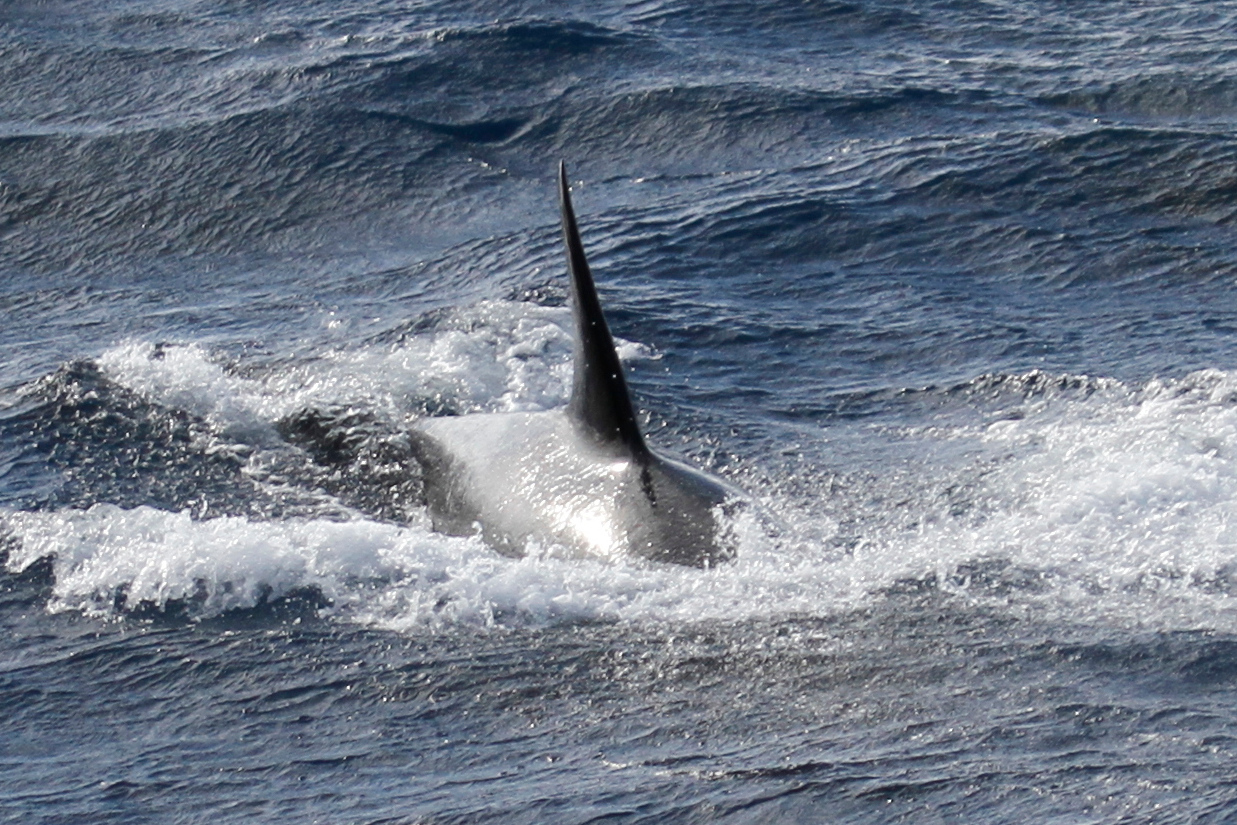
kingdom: Animalia
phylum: Chordata
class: Mammalia
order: Cetacea
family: Delphinidae
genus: Orcinus
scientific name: Orcinus orca
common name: Killer whale
